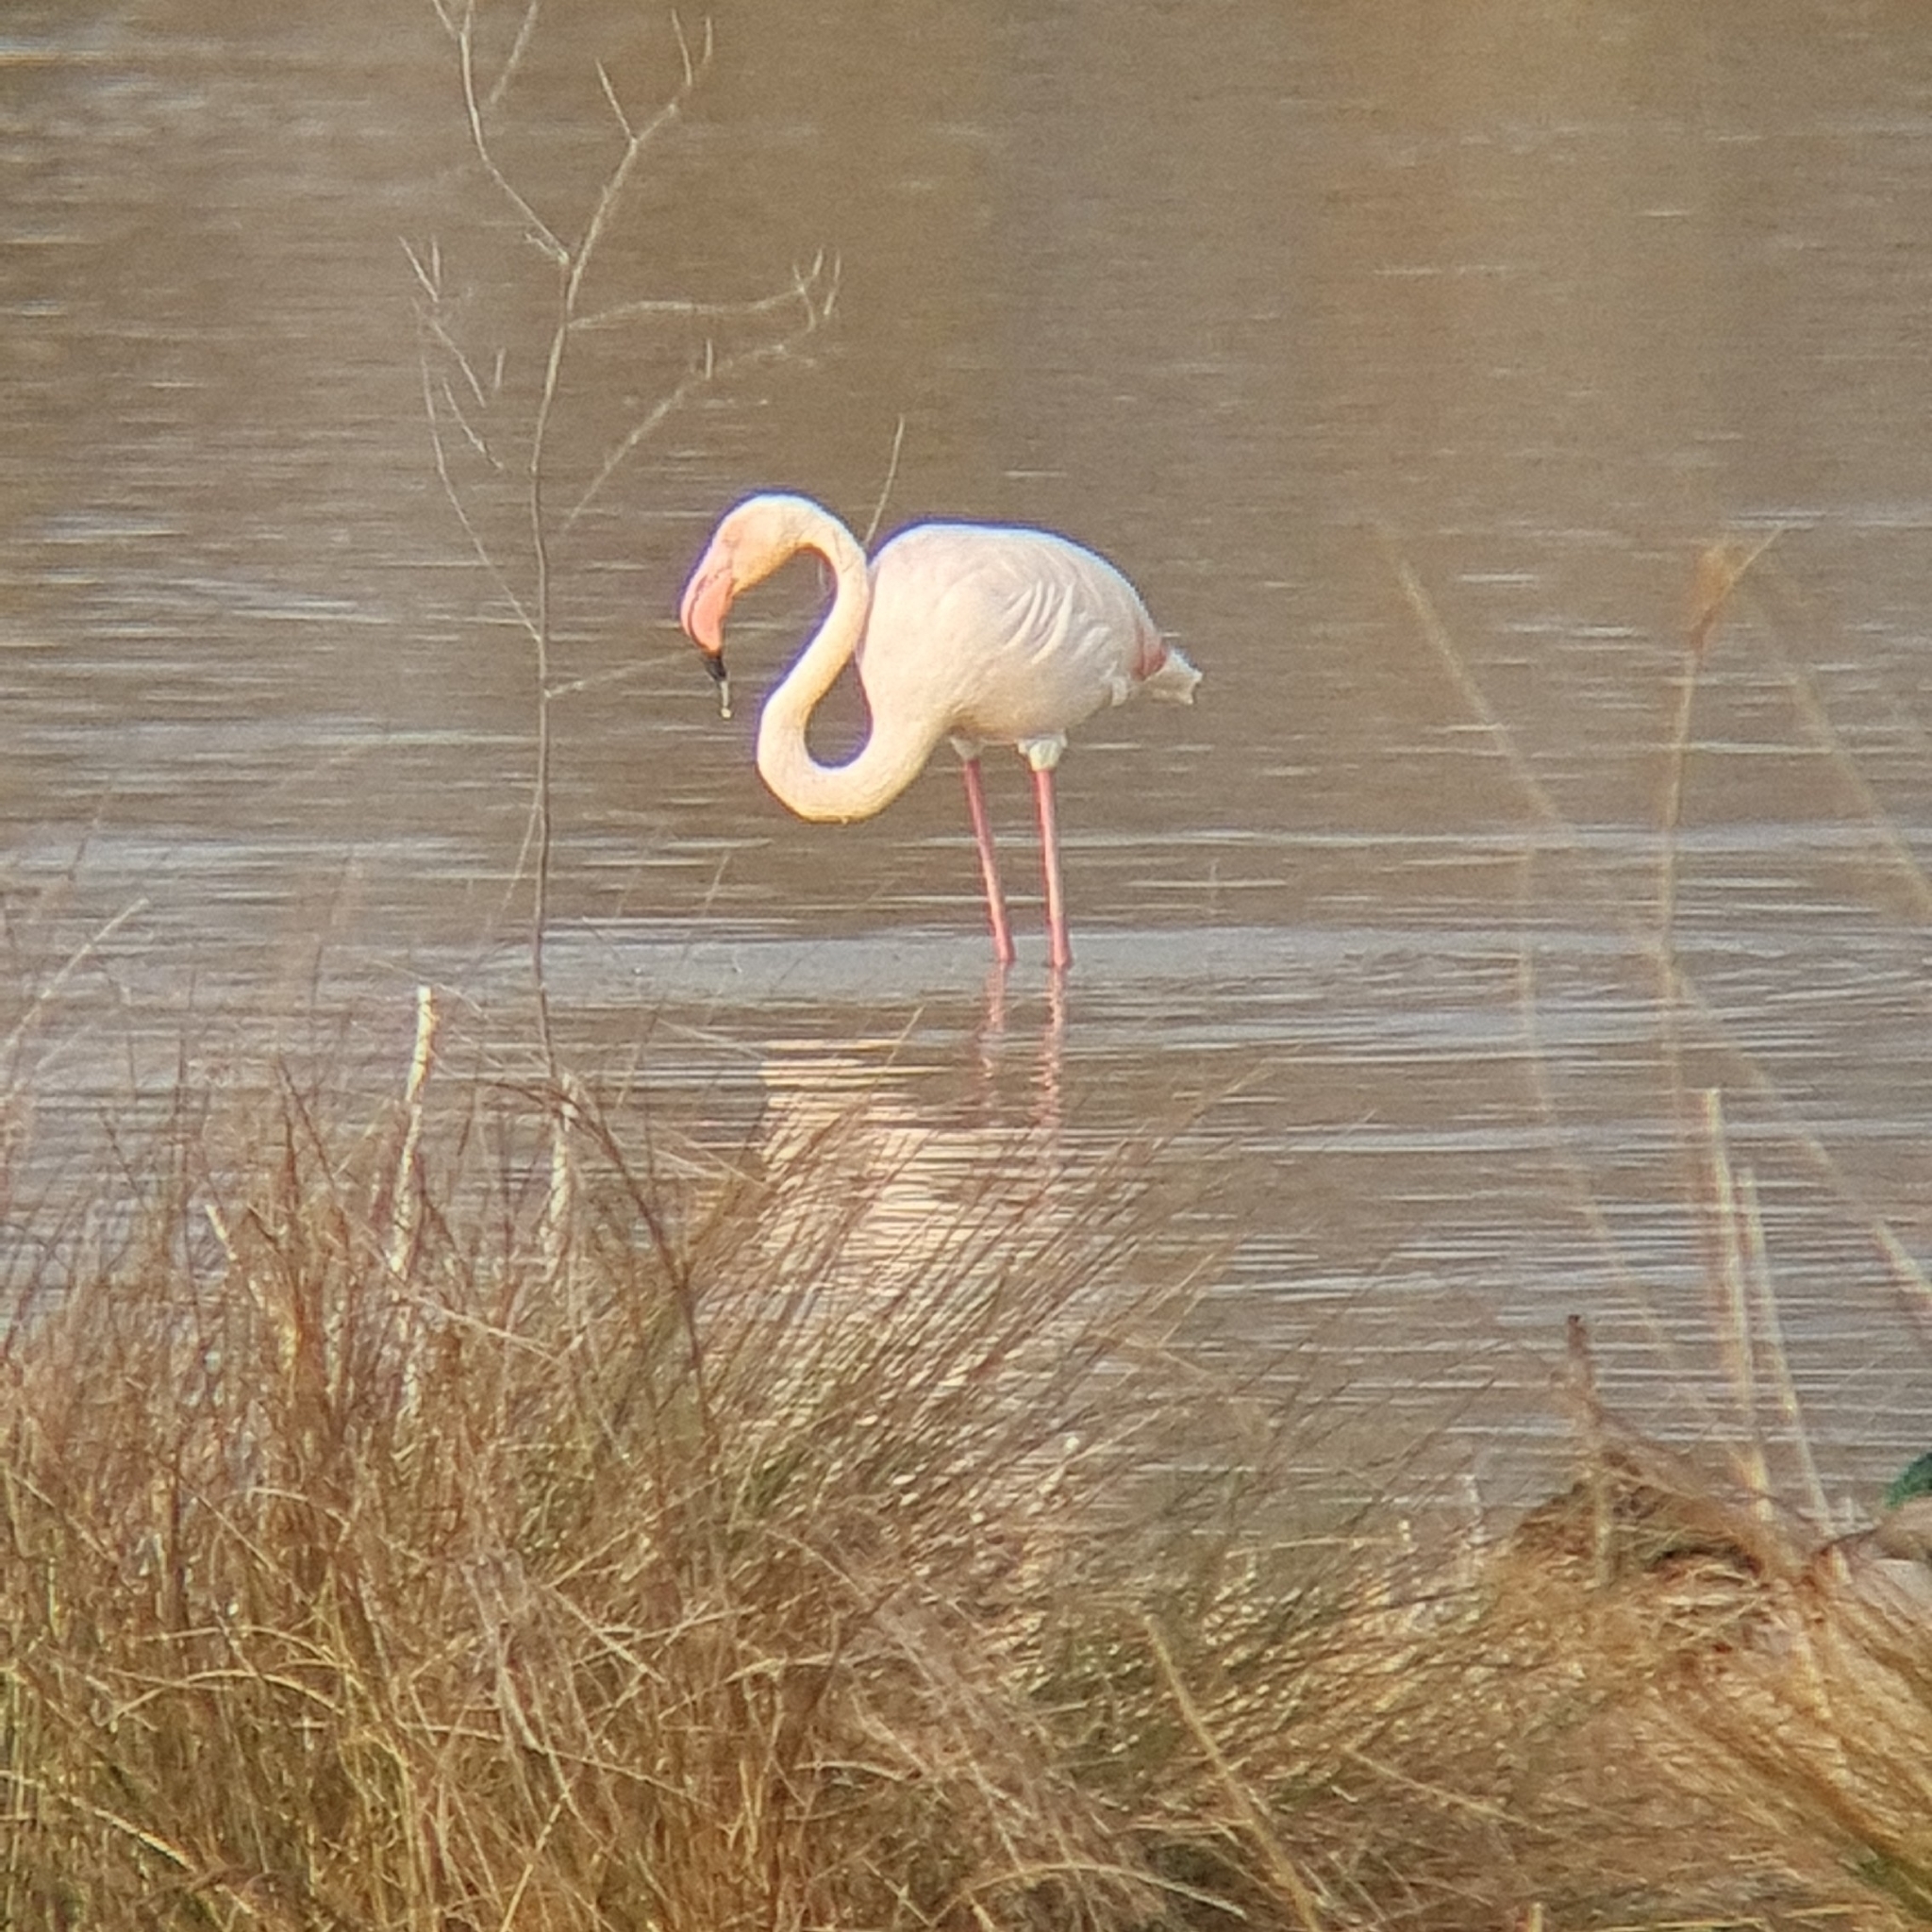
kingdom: Animalia
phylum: Chordata
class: Aves
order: Phoenicopteriformes
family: Phoenicopteridae
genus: Phoenicopterus
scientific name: Phoenicopterus roseus
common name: Greater flamingo
